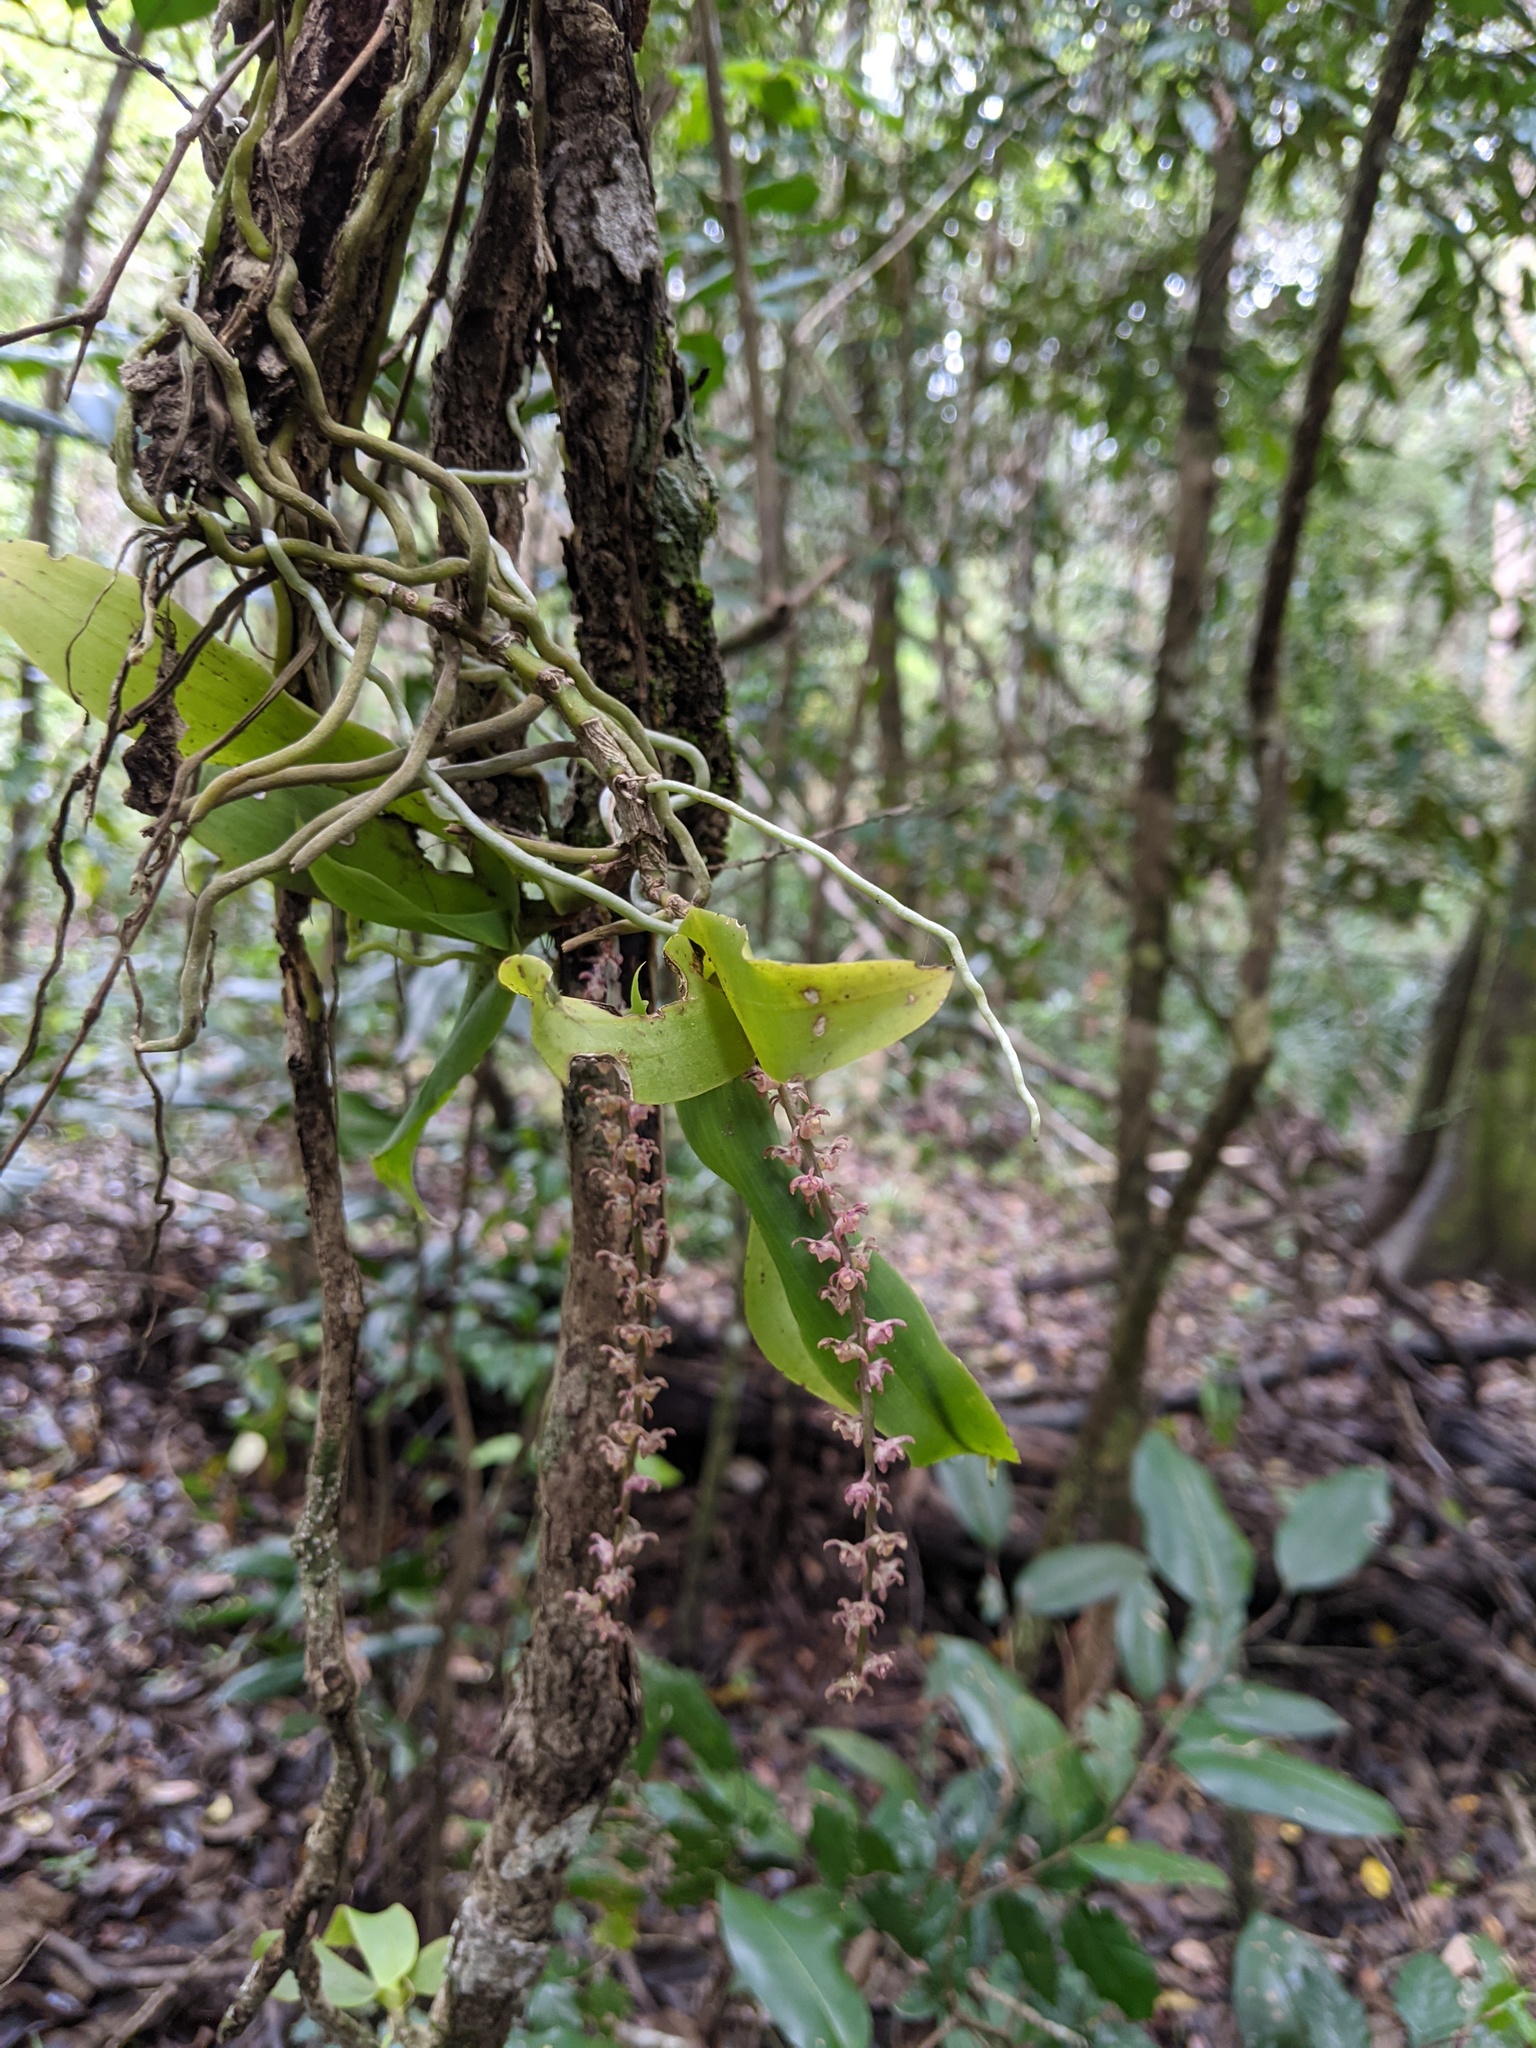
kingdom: Plantae
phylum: Tracheophyta
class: Liliopsida
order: Asparagales
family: Orchidaceae
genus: Peristeranthus
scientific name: Peristeranthus hillii
